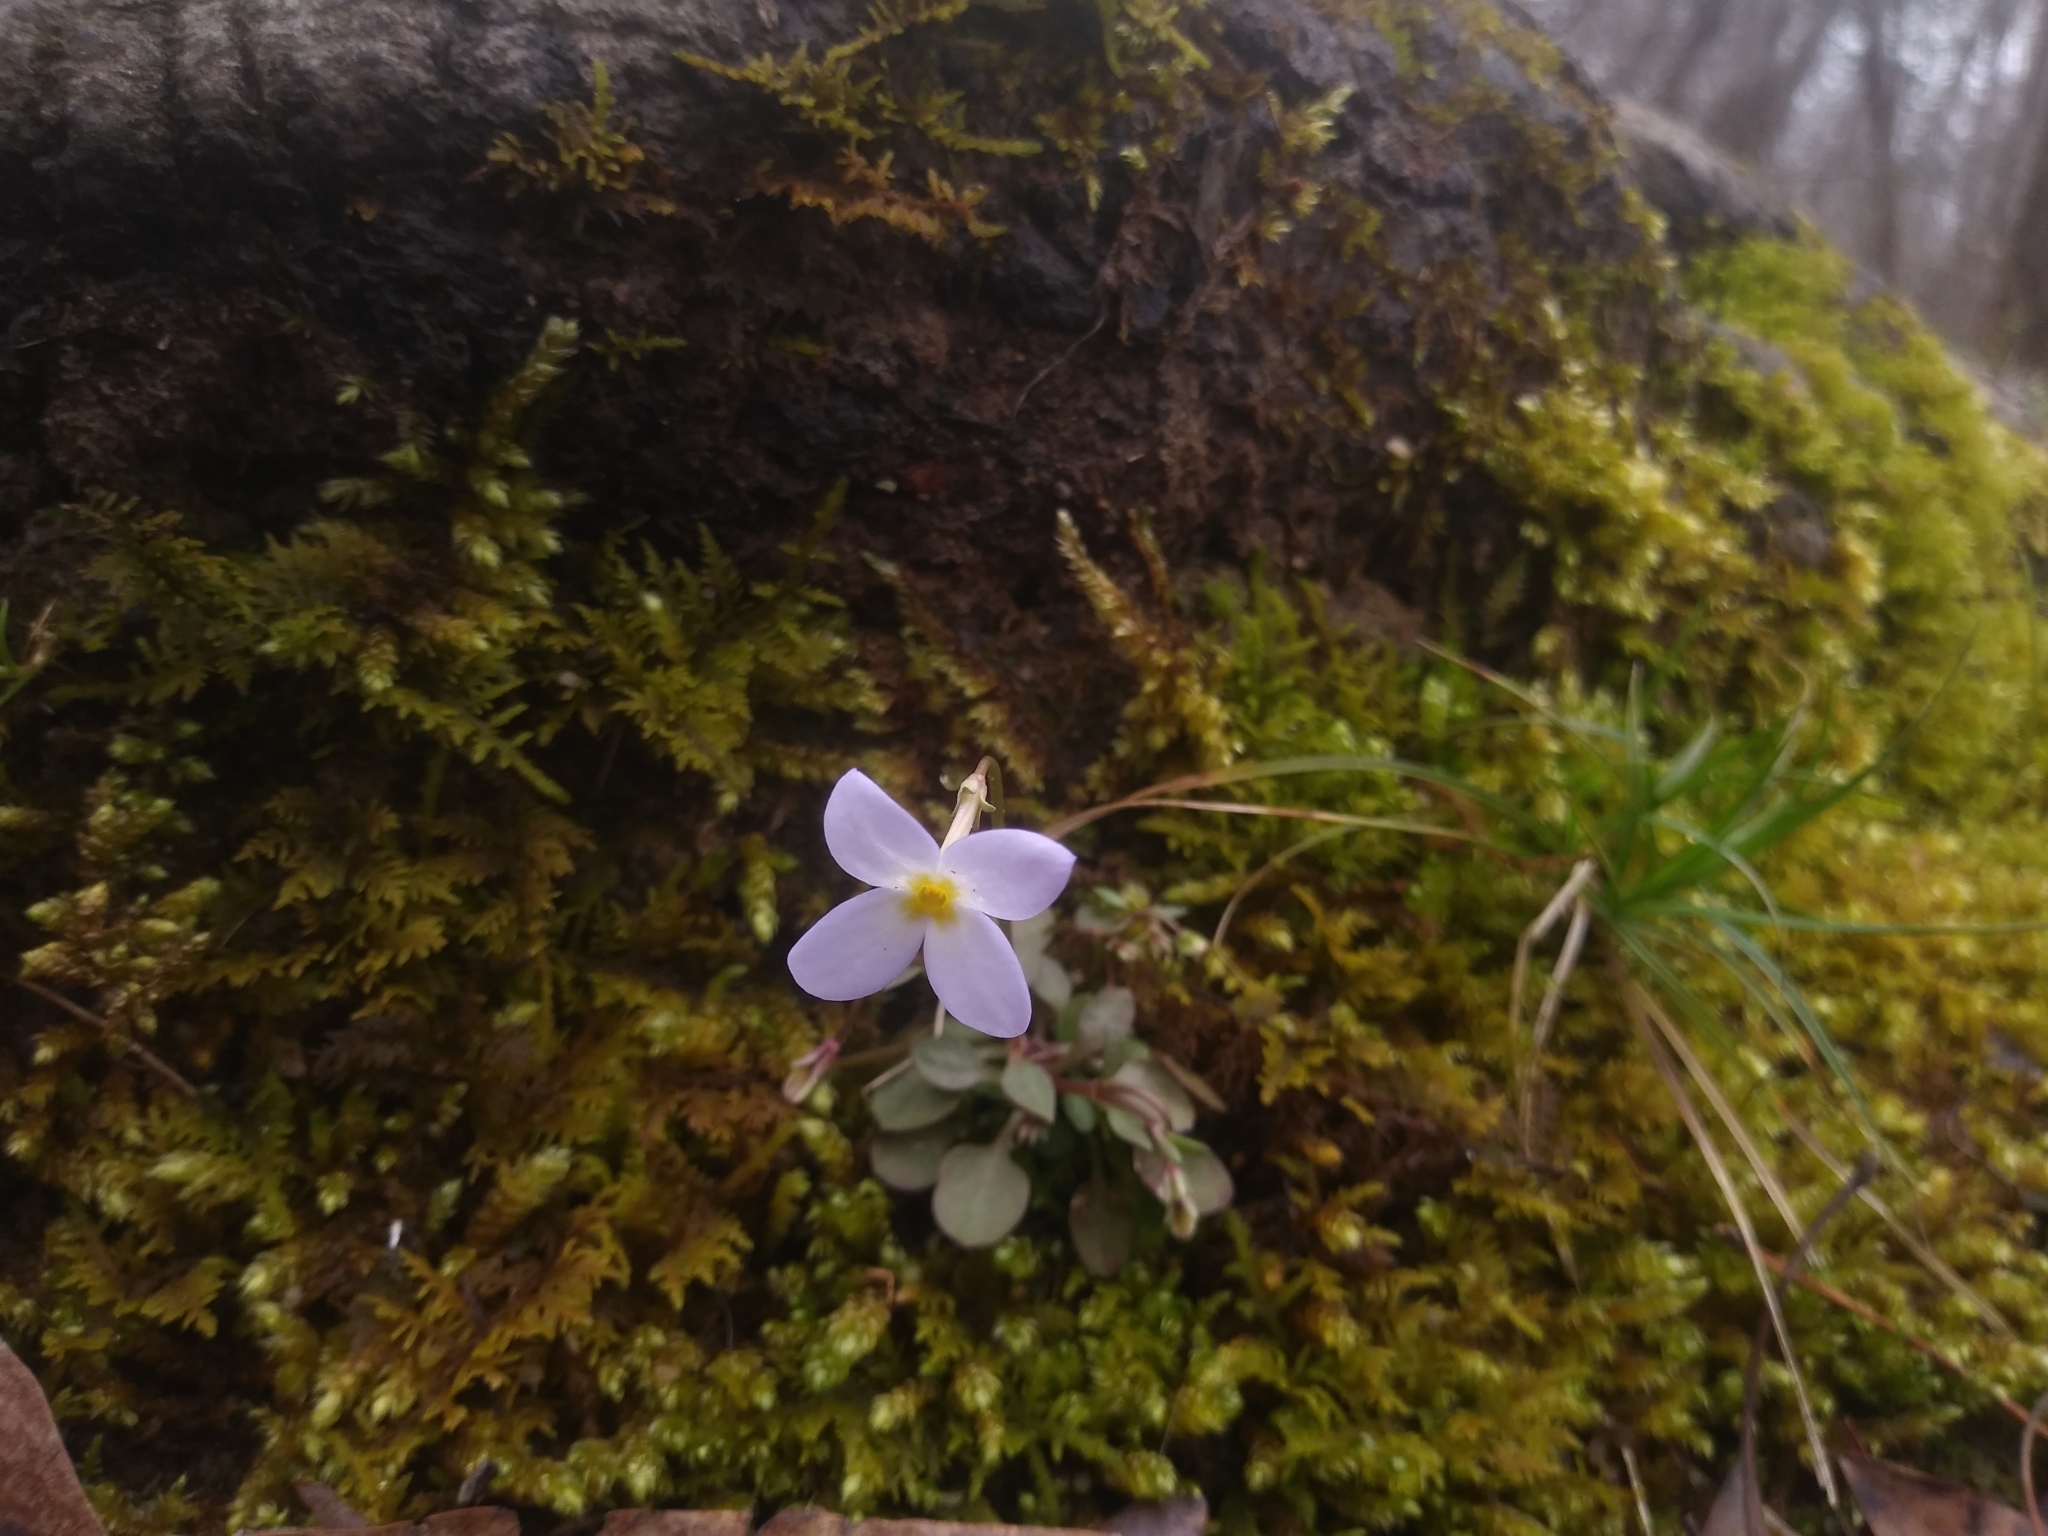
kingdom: Plantae
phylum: Tracheophyta
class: Magnoliopsida
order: Gentianales
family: Rubiaceae
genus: Houstonia
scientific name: Houstonia caerulea
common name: Bluets
